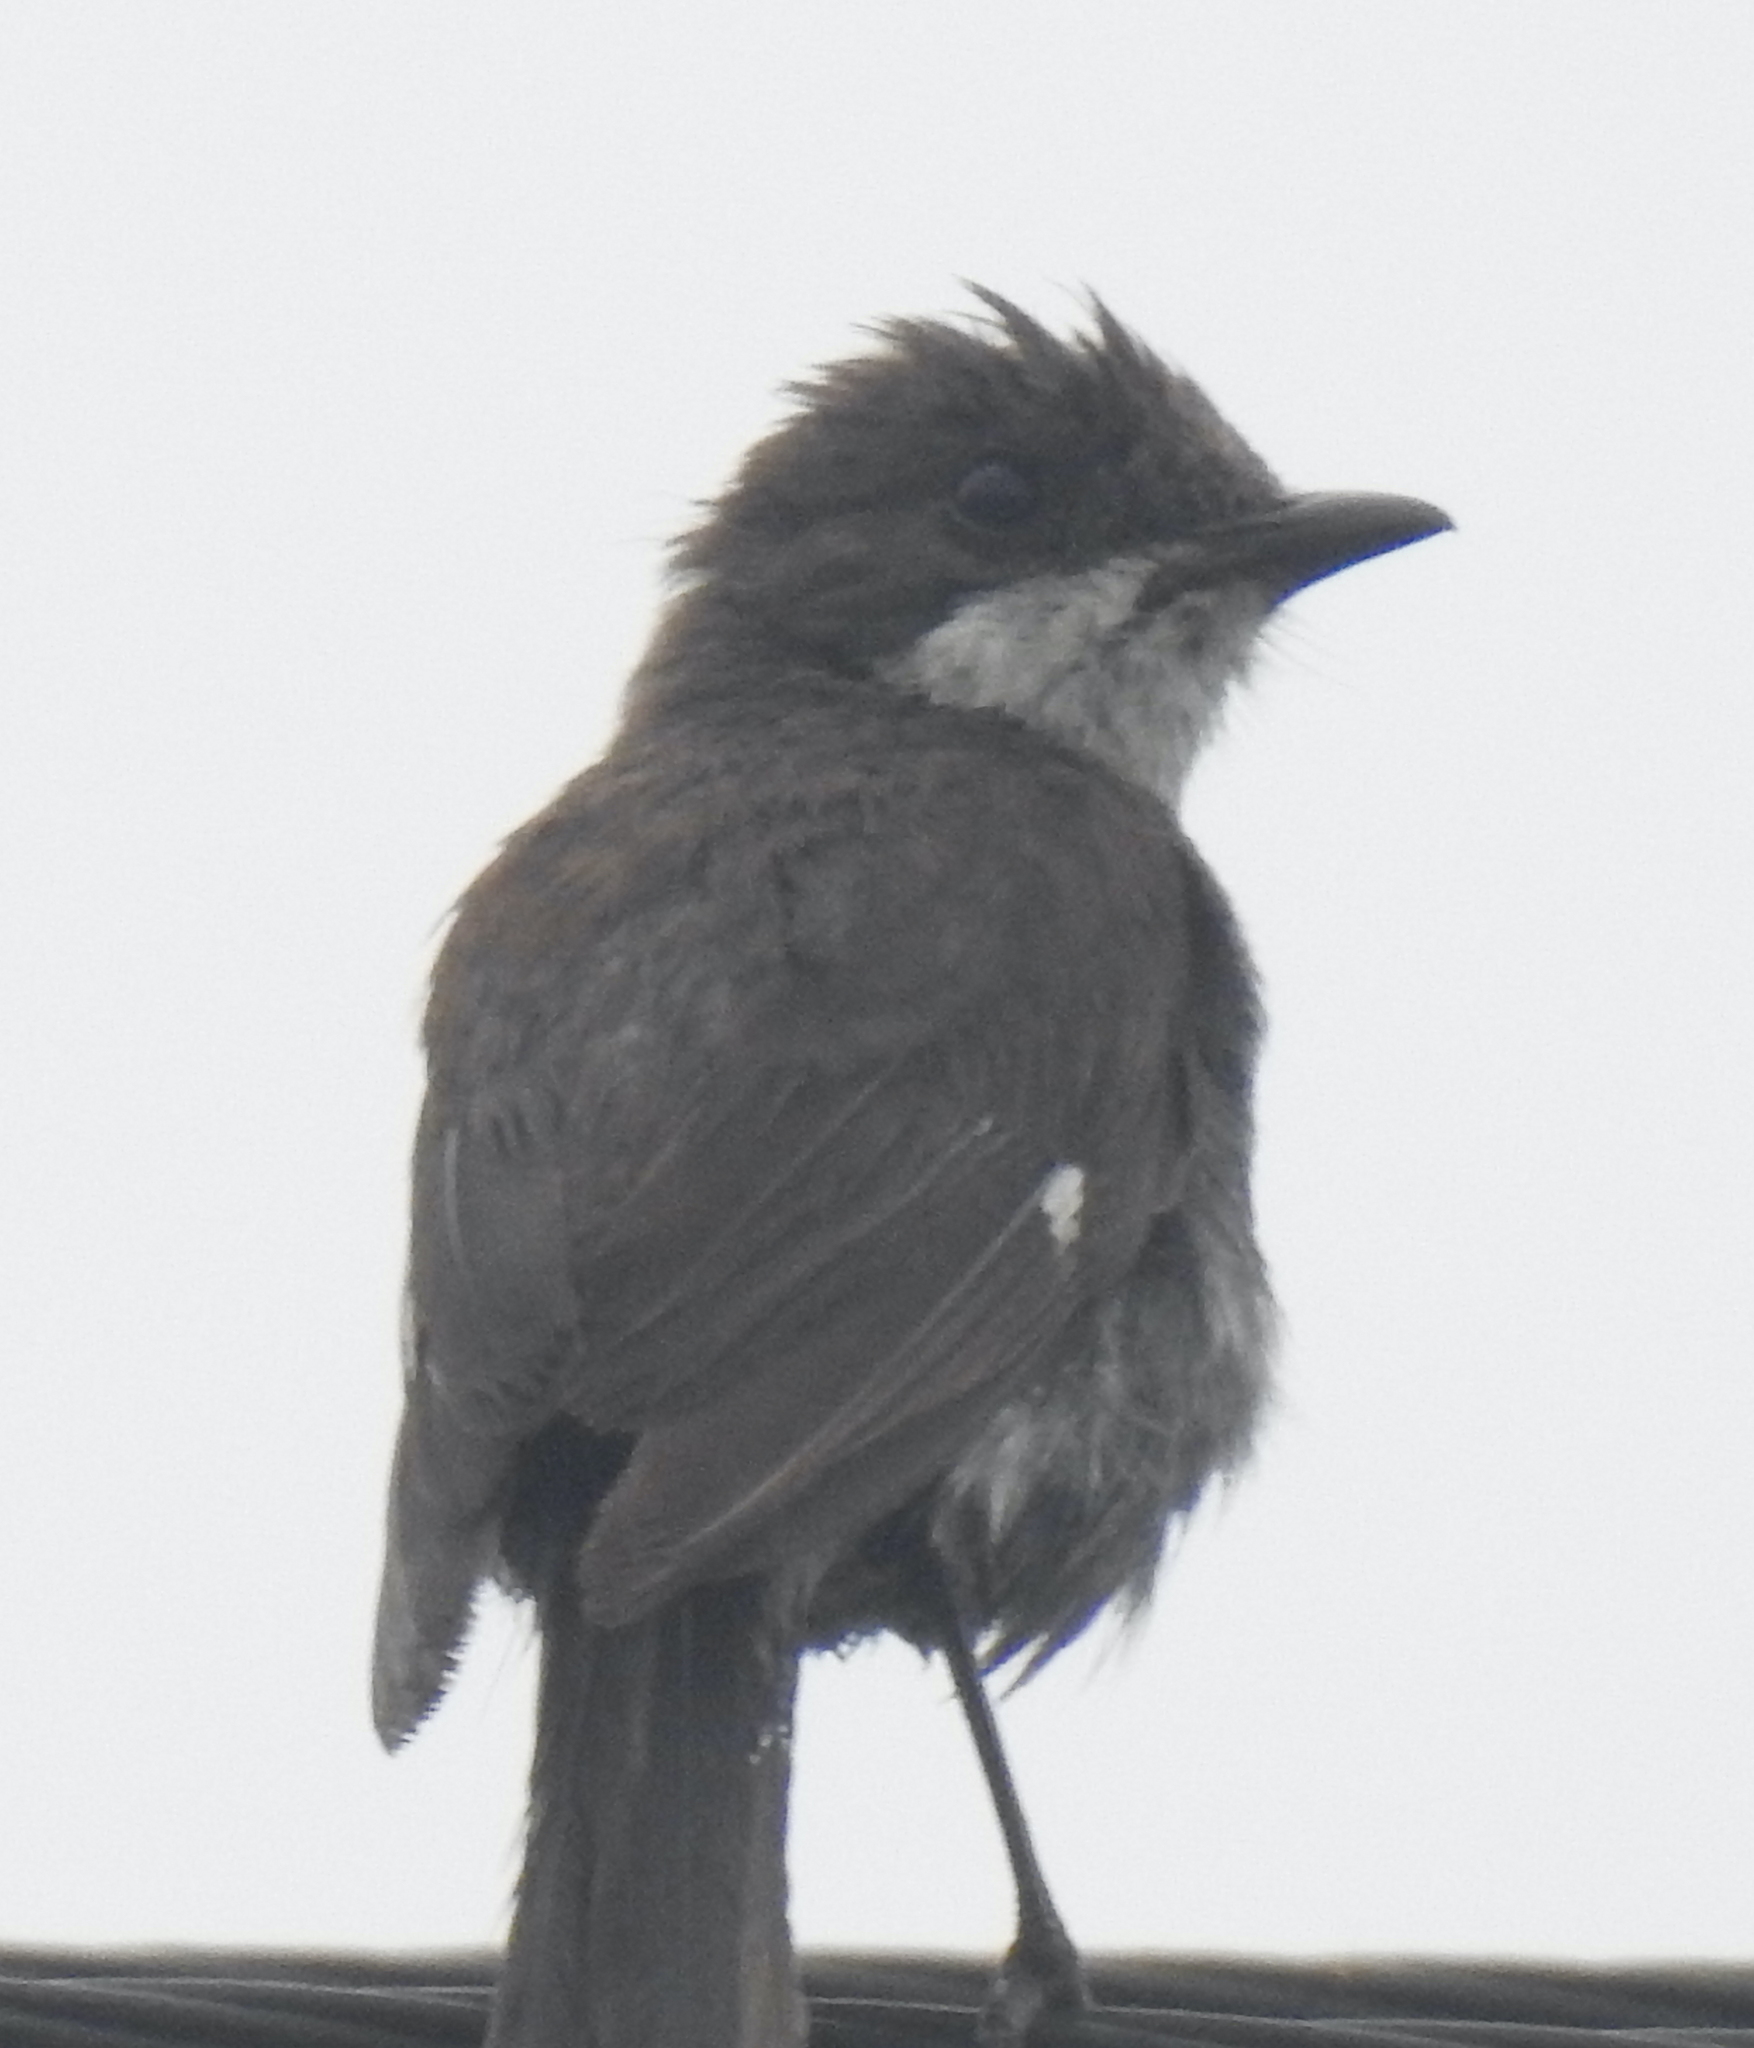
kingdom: Animalia
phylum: Chordata
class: Aves
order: Passeriformes
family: Muscicapidae
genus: Sigelus
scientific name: Sigelus silens
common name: Fiscal flycatcher
